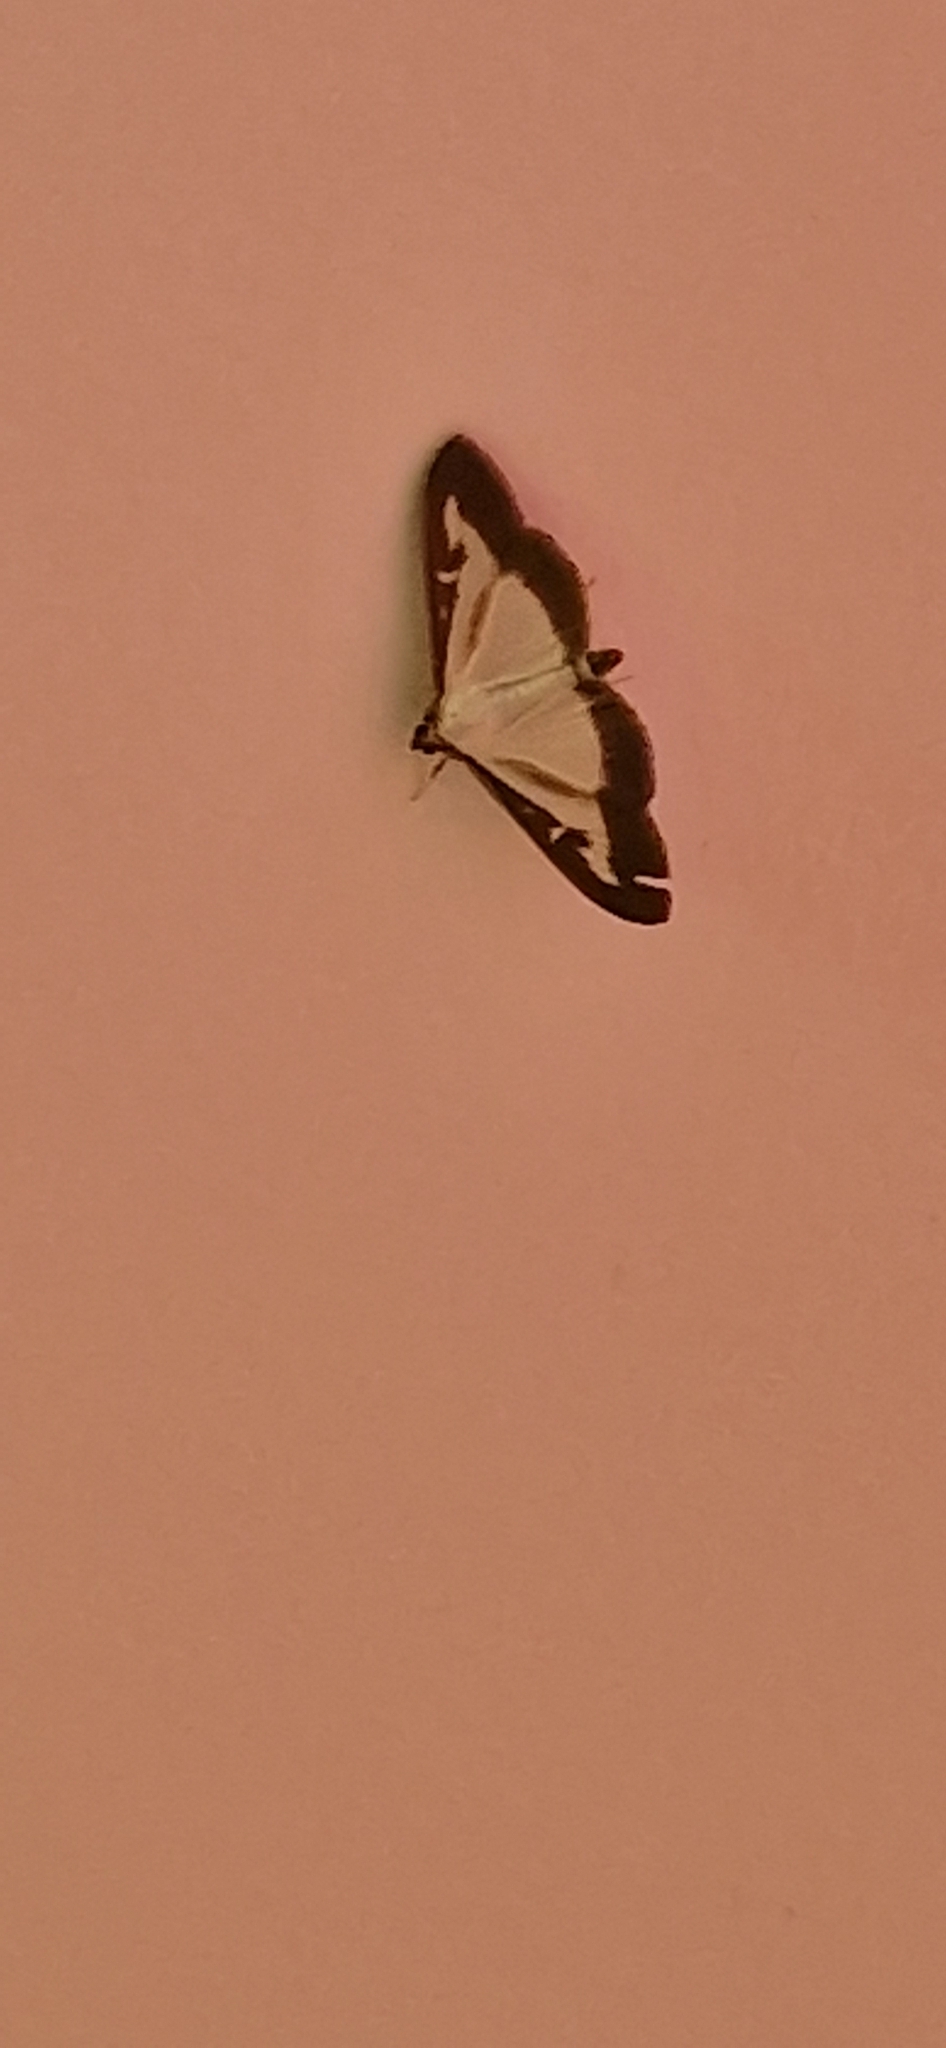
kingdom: Animalia
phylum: Arthropoda
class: Insecta
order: Lepidoptera
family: Crambidae
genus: Cydalima
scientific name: Cydalima perspectalis
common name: Box tree moth
